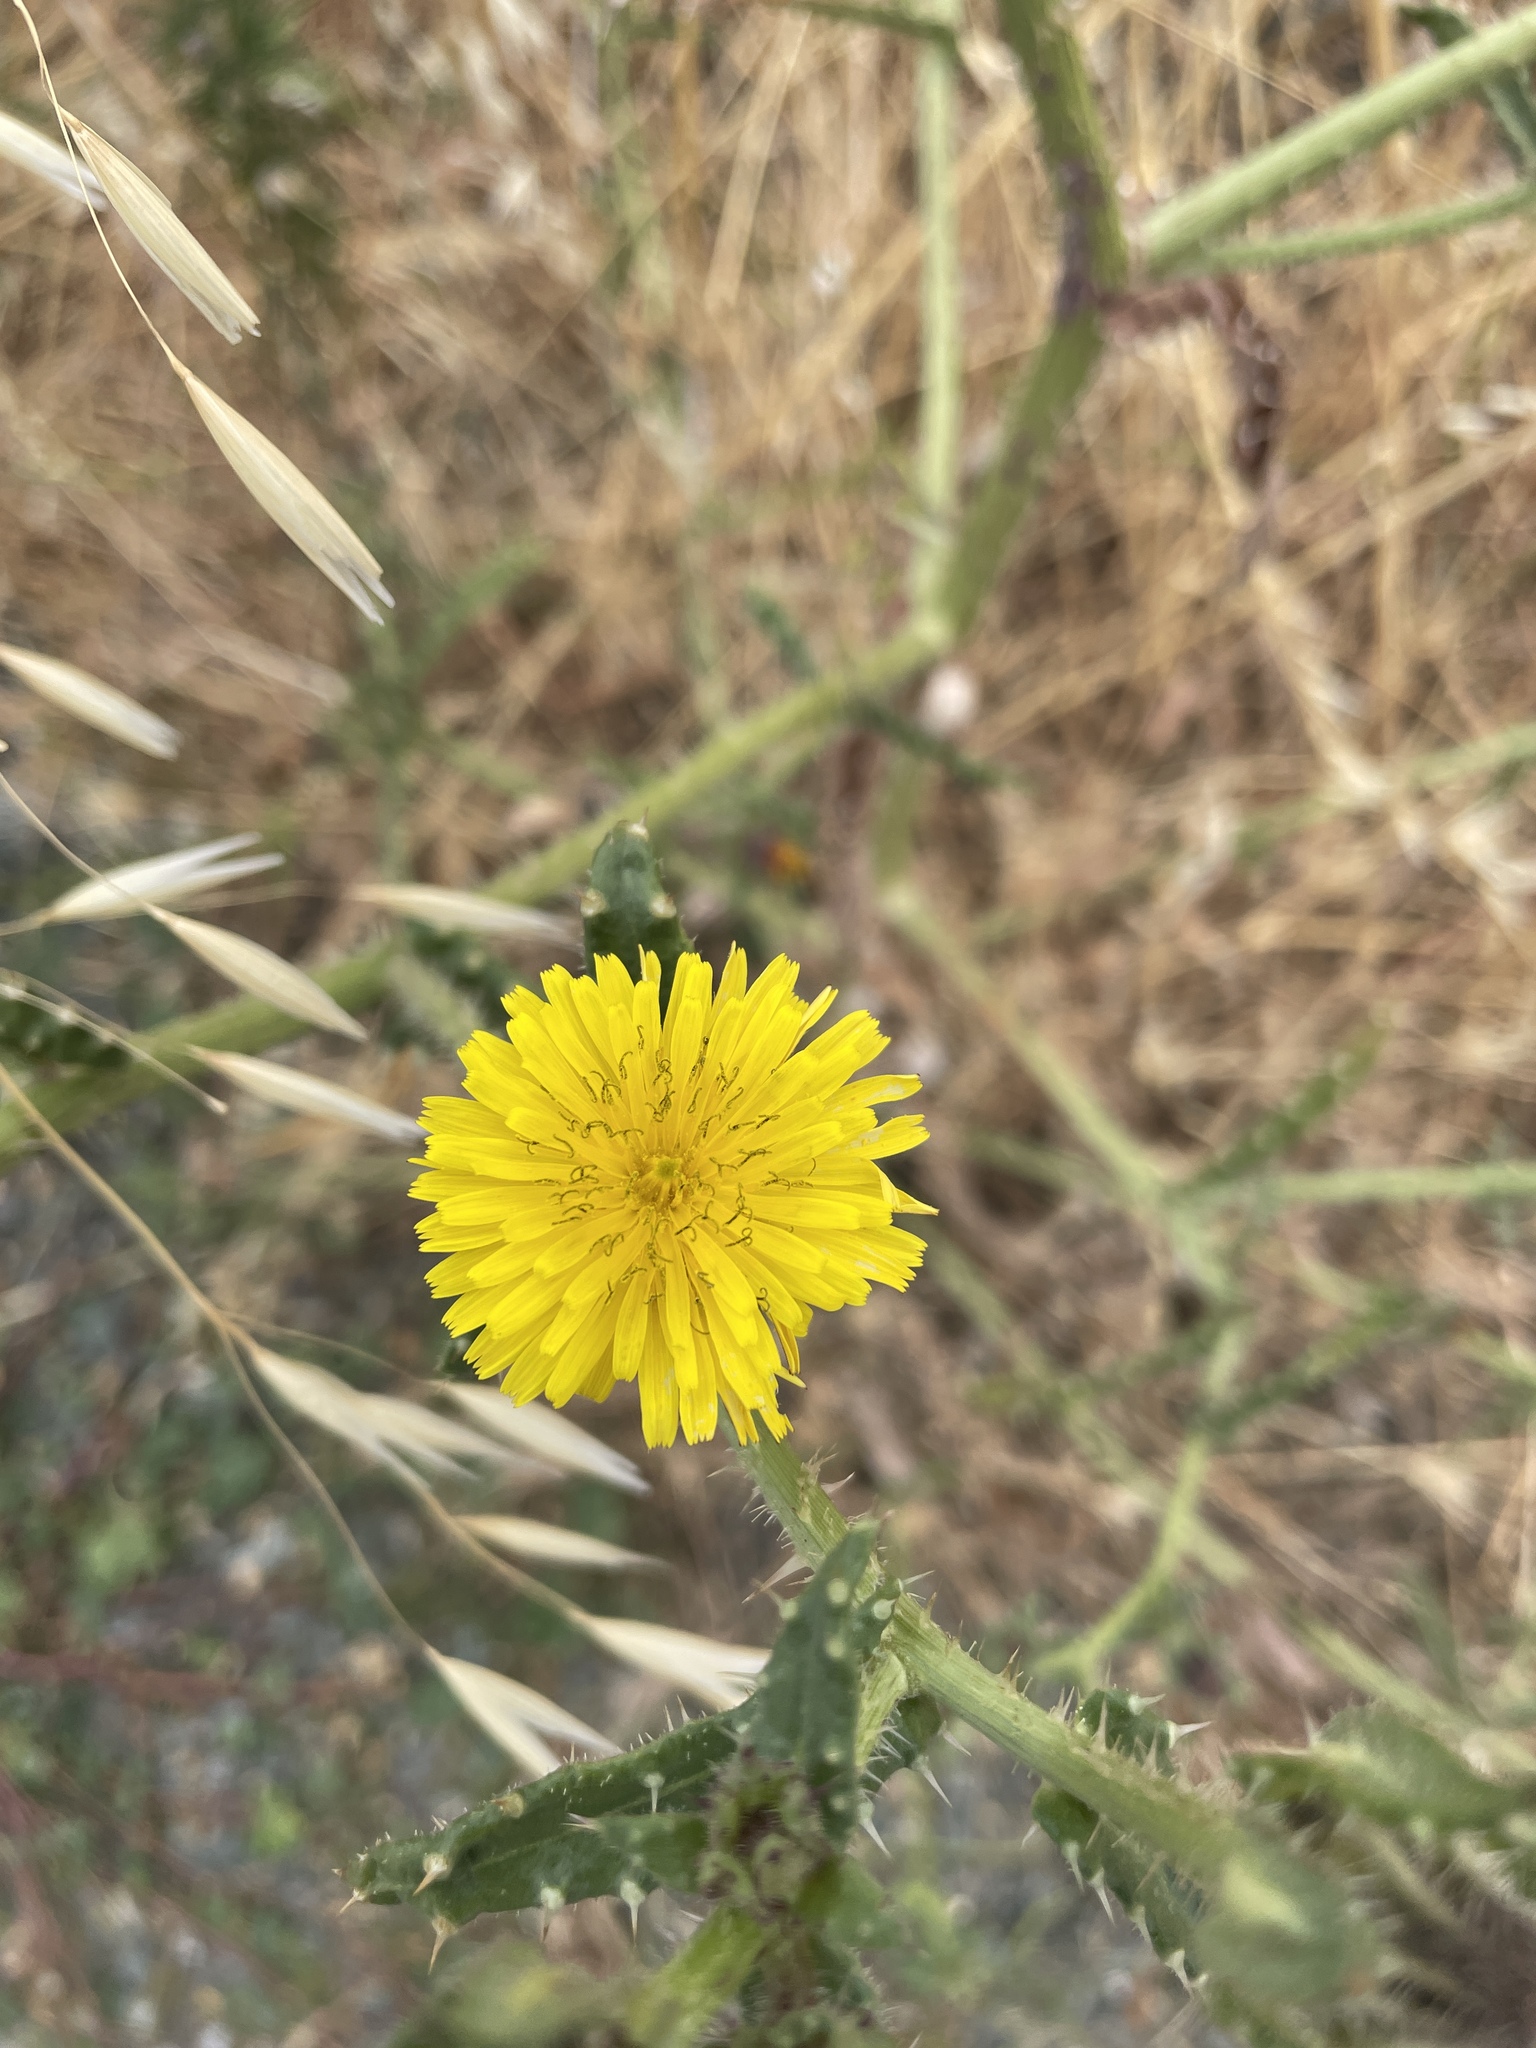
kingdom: Plantae
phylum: Tracheophyta
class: Magnoliopsida
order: Asterales
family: Asteraceae
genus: Helminthotheca
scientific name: Helminthotheca echioides
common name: Ox-tongue
